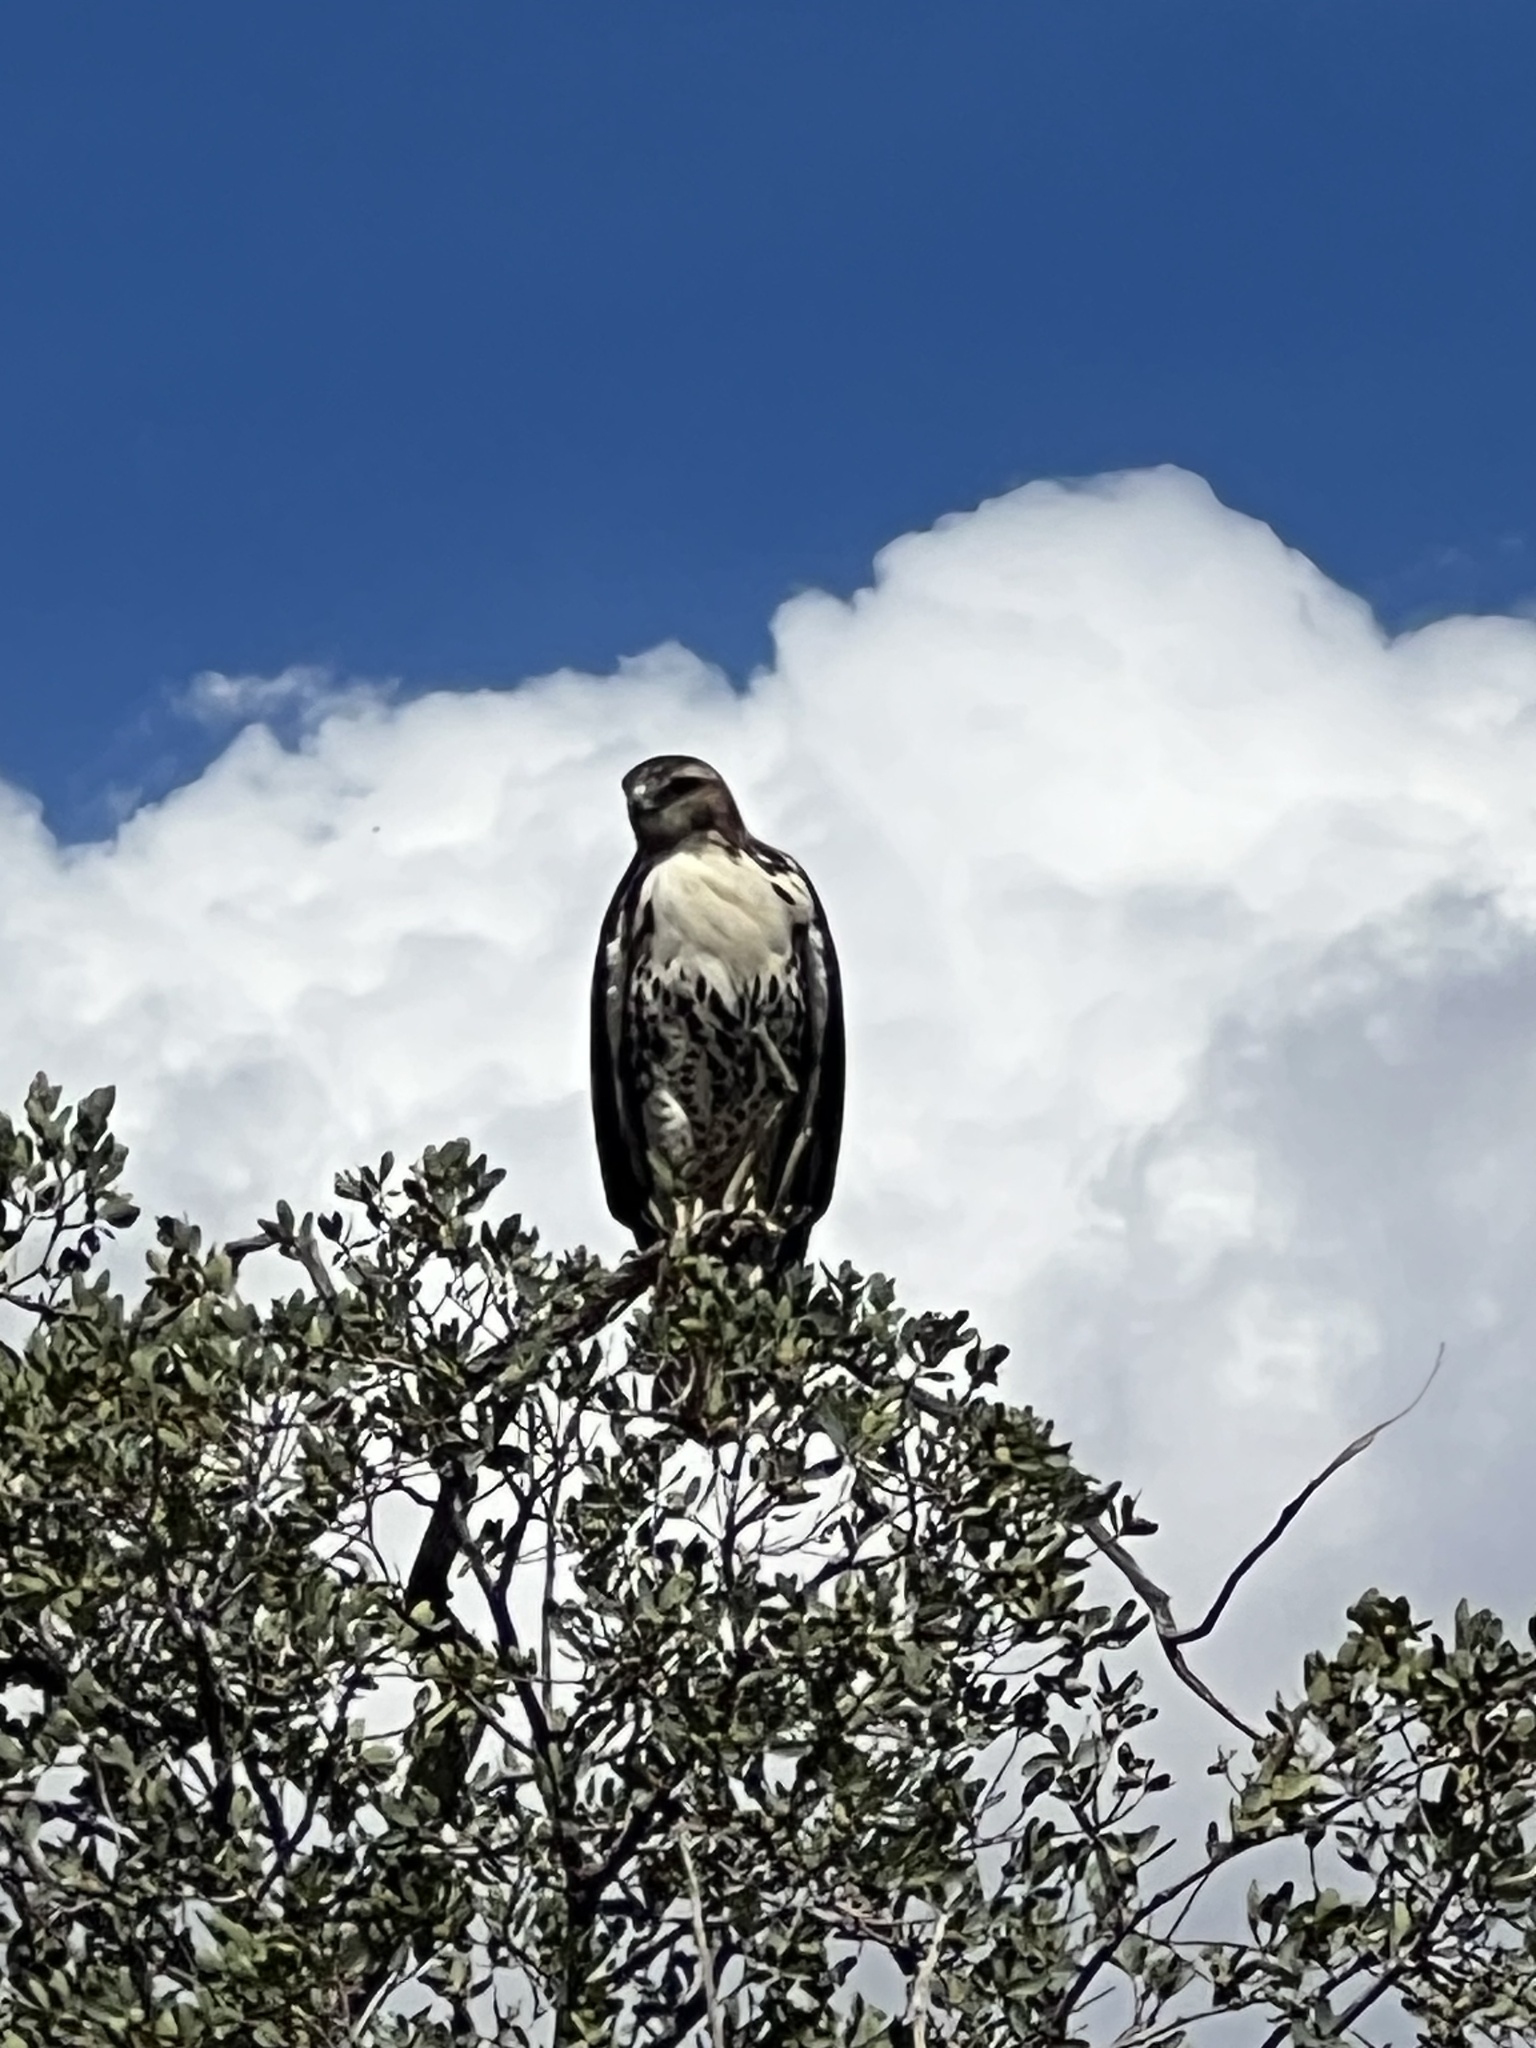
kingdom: Animalia
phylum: Chordata
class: Aves
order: Accipitriformes
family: Accipitridae
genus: Buteo
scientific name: Buteo jamaicensis
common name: Red-tailed hawk
